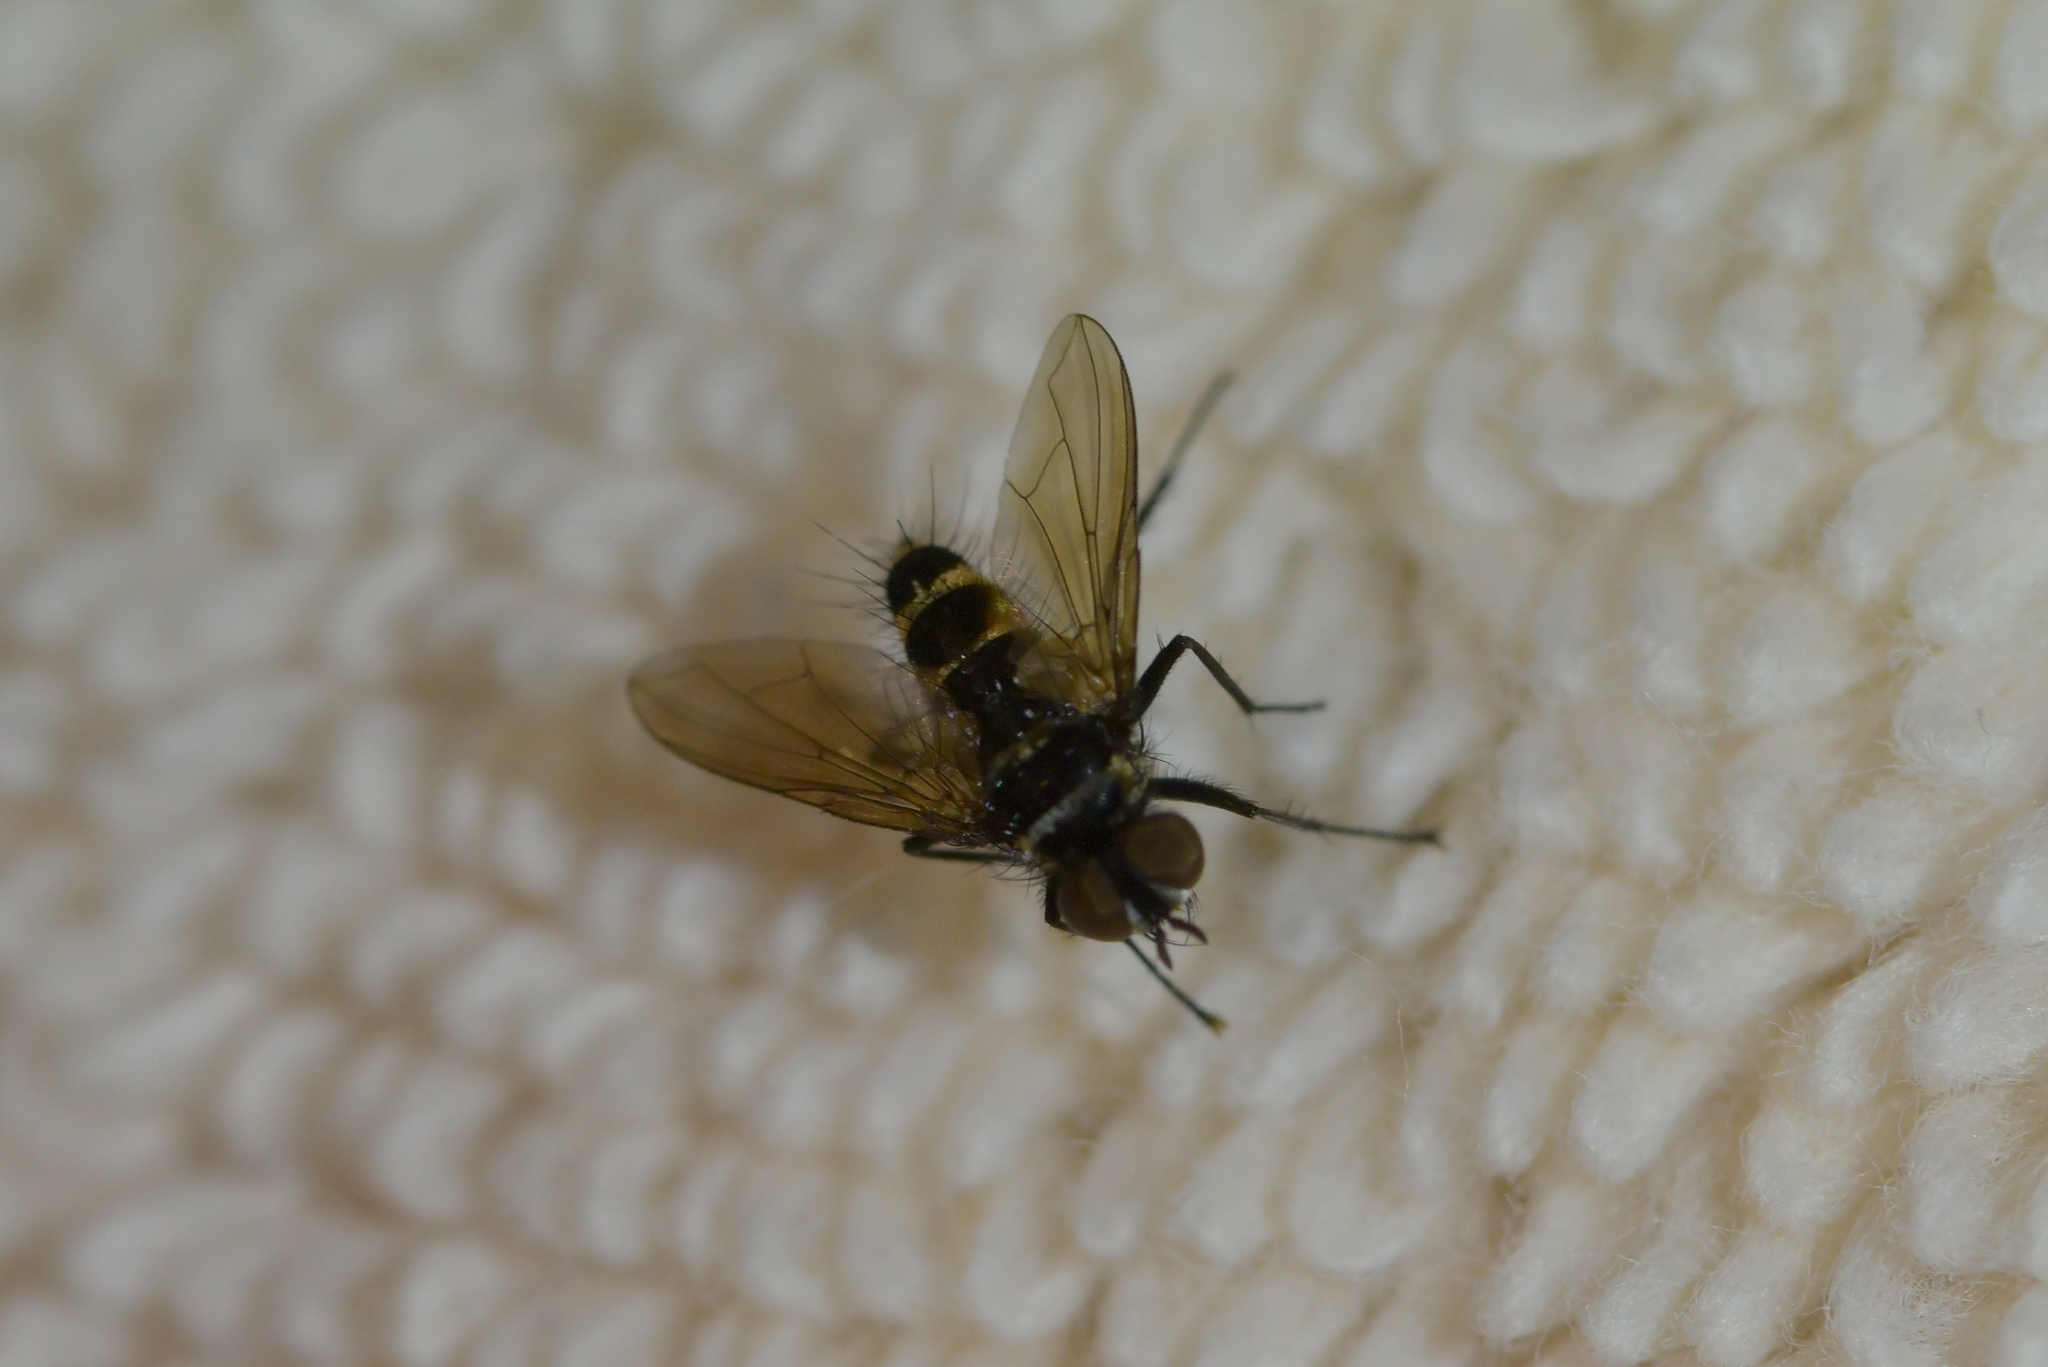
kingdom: Animalia
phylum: Arthropoda
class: Insecta
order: Diptera
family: Tachinidae
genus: Trigonospila
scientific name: Trigonospila brevifacies
